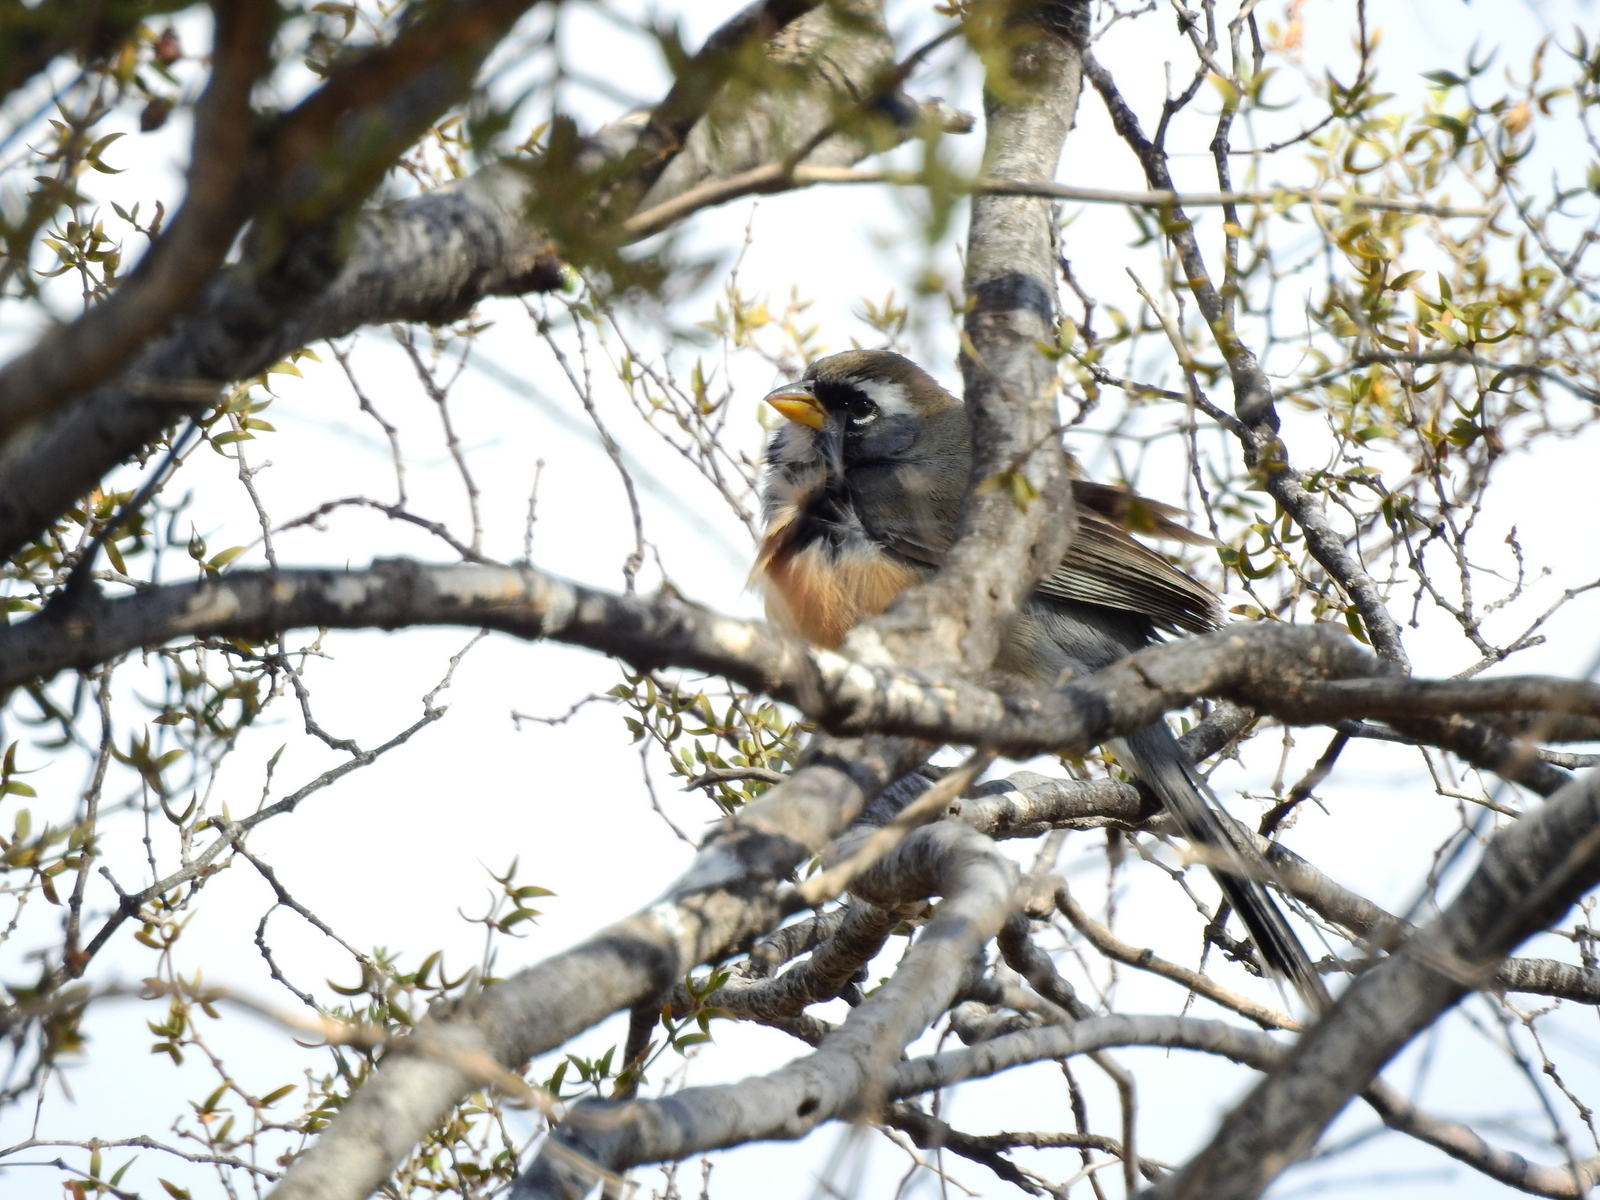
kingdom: Animalia
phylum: Chordata
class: Aves
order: Passeriformes
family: Thraupidae
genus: Saltatricula
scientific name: Saltatricula multicolor
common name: Many-colored chaco finch
